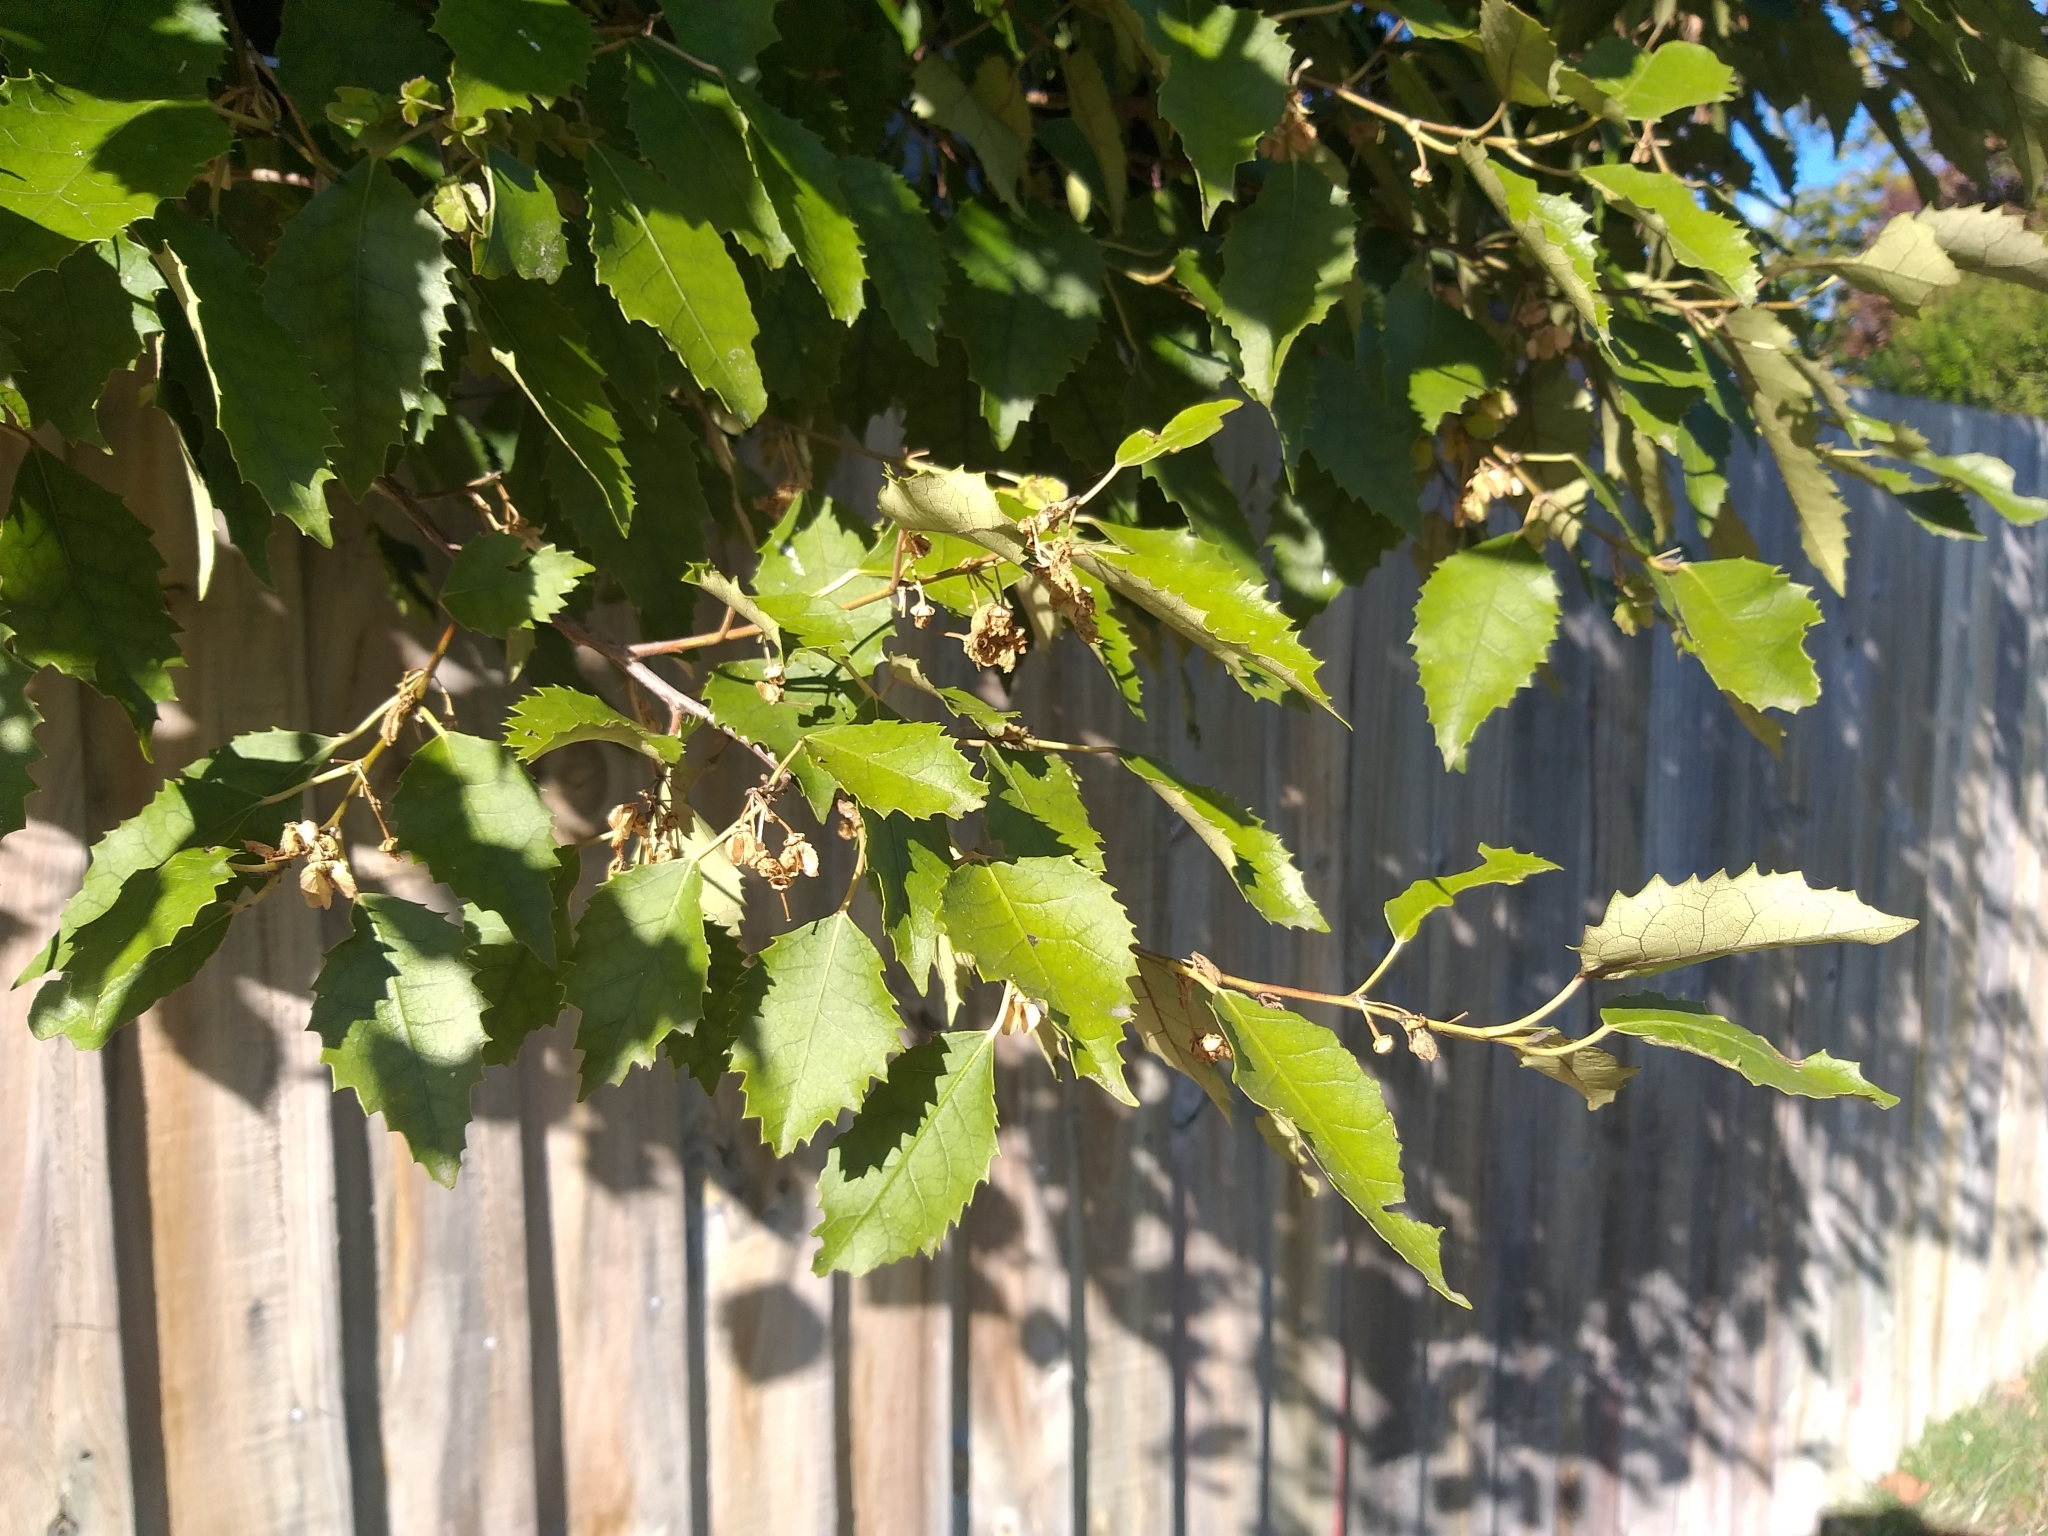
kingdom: Plantae
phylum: Tracheophyta
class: Magnoliopsida
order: Malvales
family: Malvaceae
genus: Hoheria
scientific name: Hoheria populnea
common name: Lacebark
